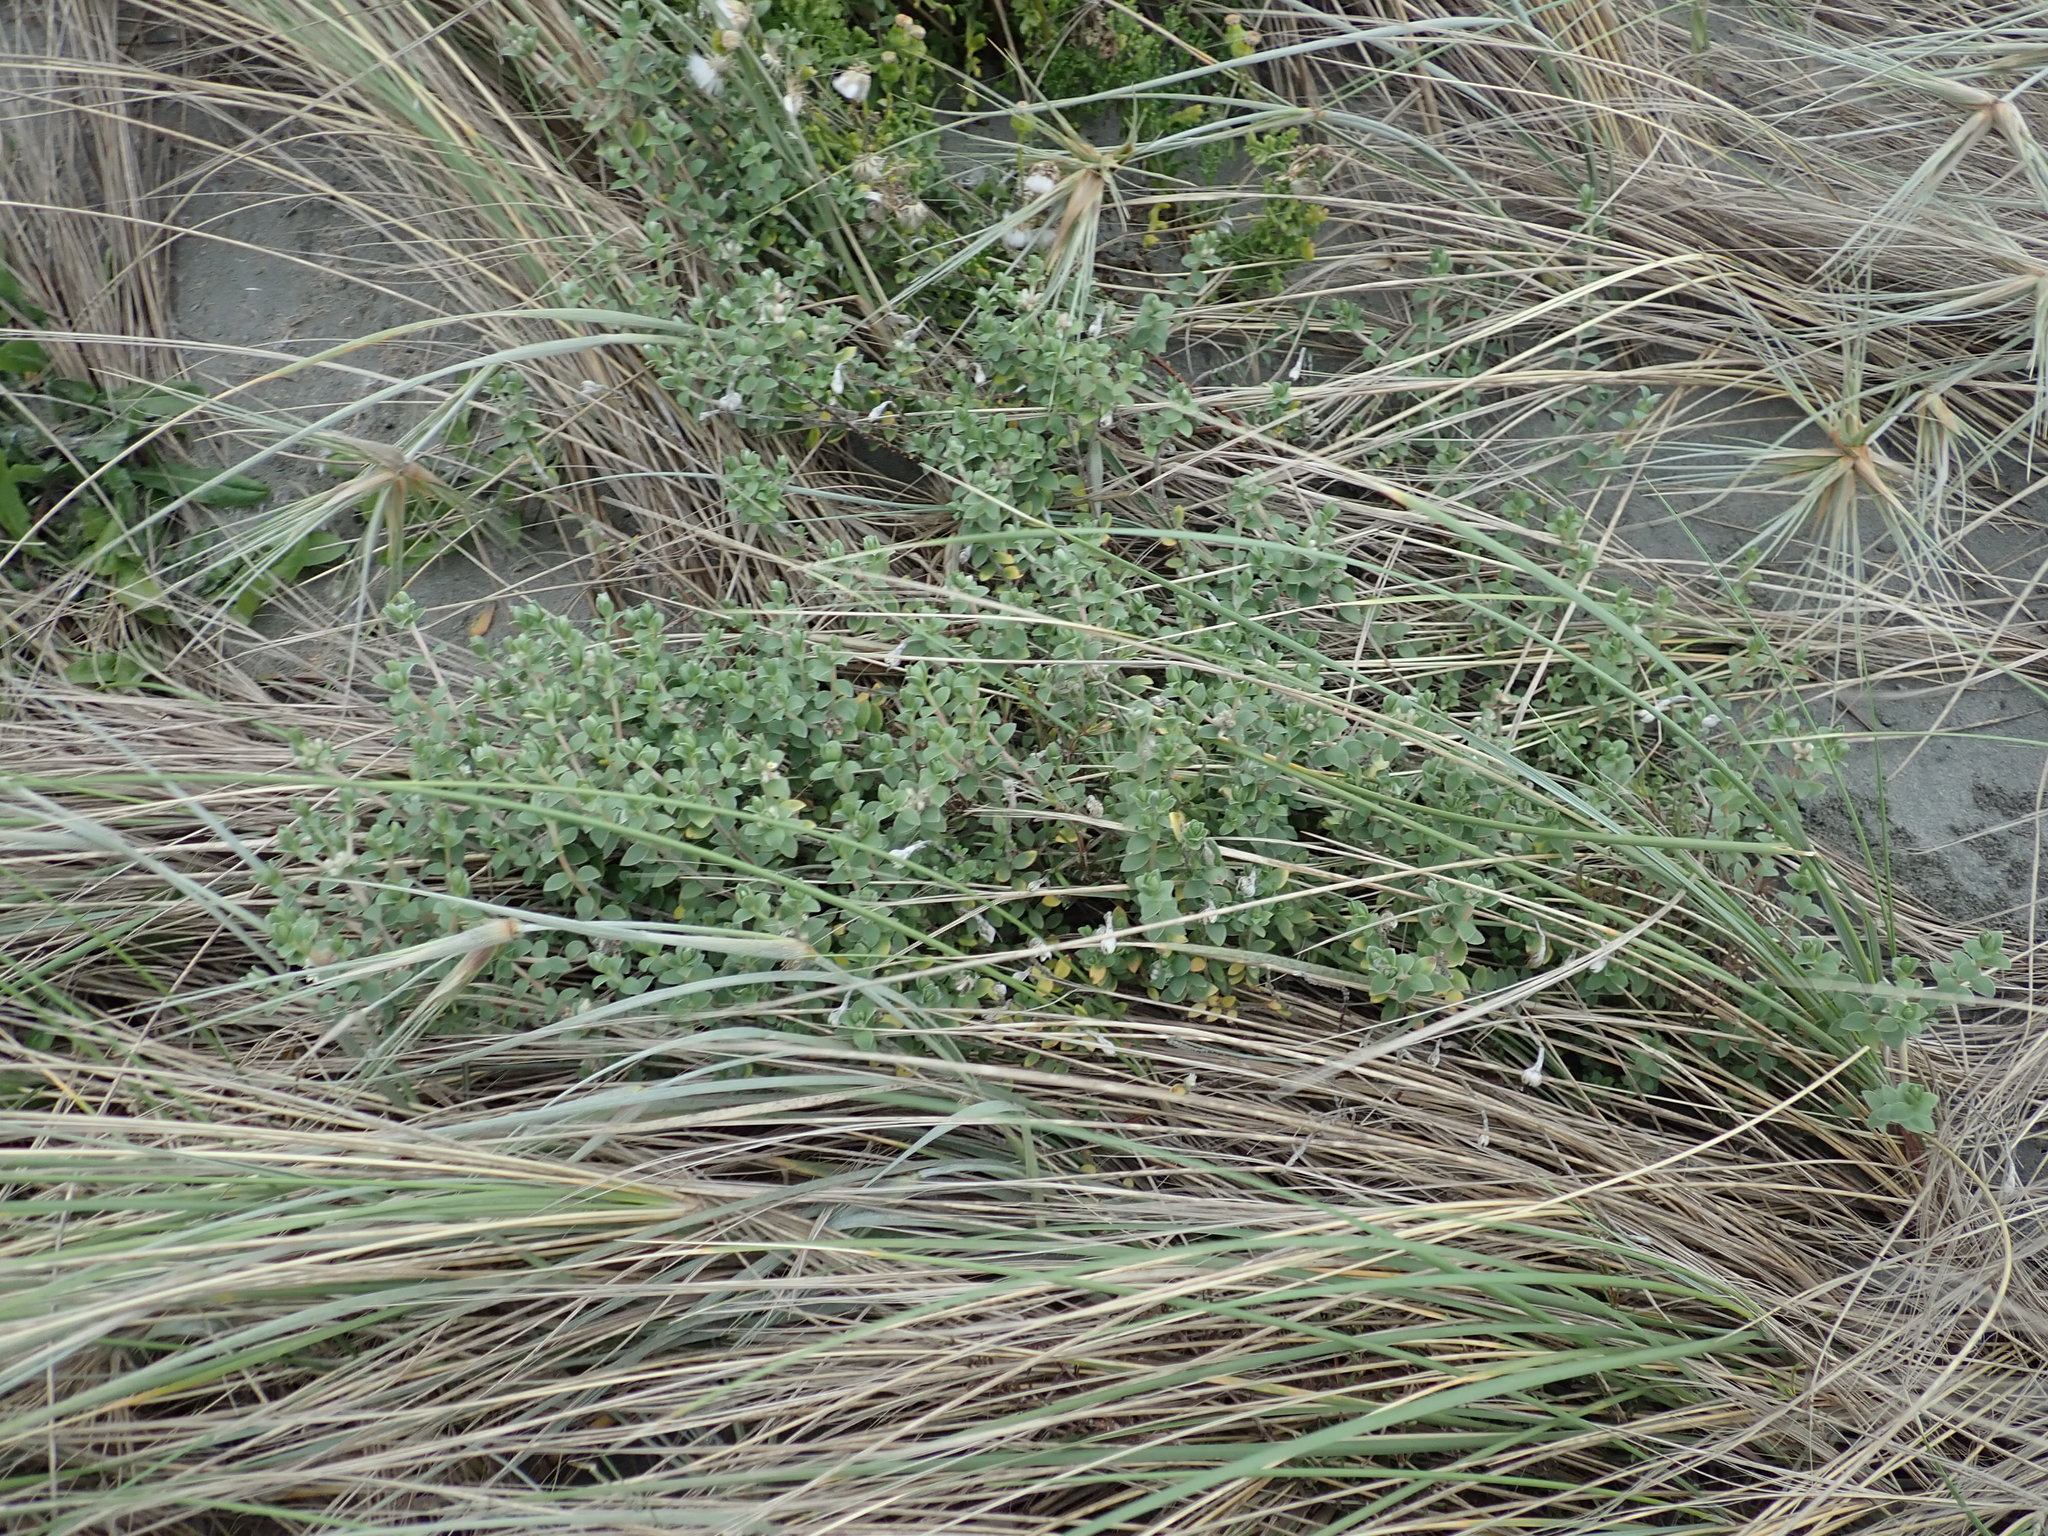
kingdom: Plantae
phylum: Tracheophyta
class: Magnoliopsida
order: Malvales
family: Thymelaeaceae
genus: Pimelea
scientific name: Pimelea villosa
